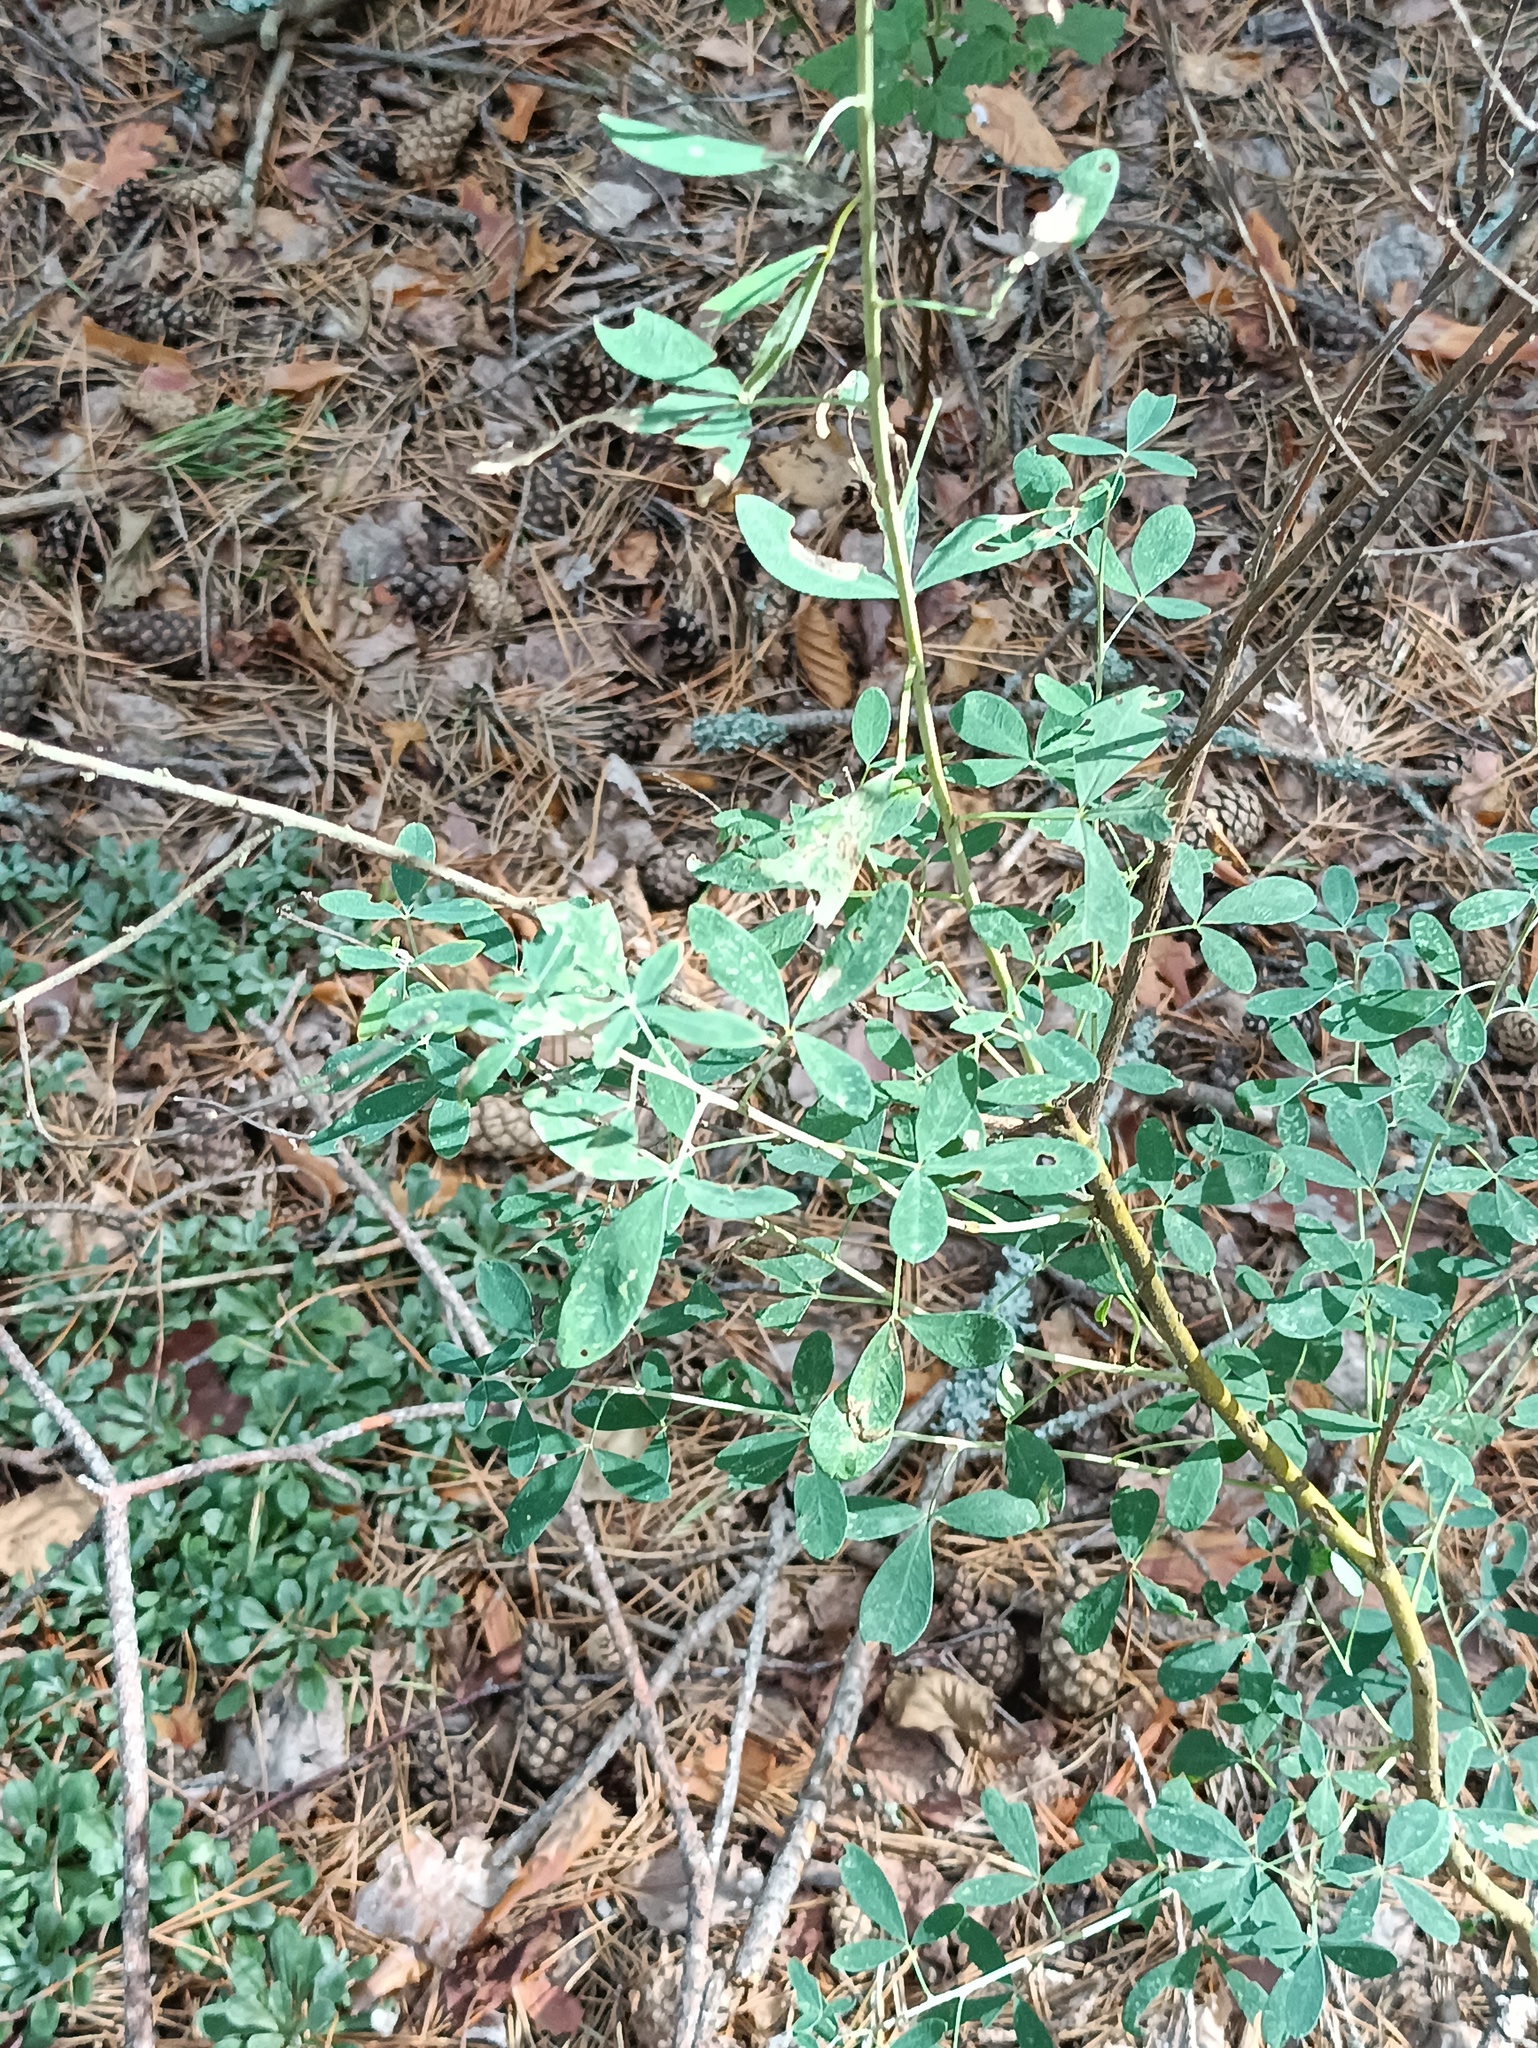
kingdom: Plantae
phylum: Tracheophyta
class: Magnoliopsida
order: Fabales
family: Fabaceae
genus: Chamaecytisus
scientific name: Chamaecytisus ruthenicus
